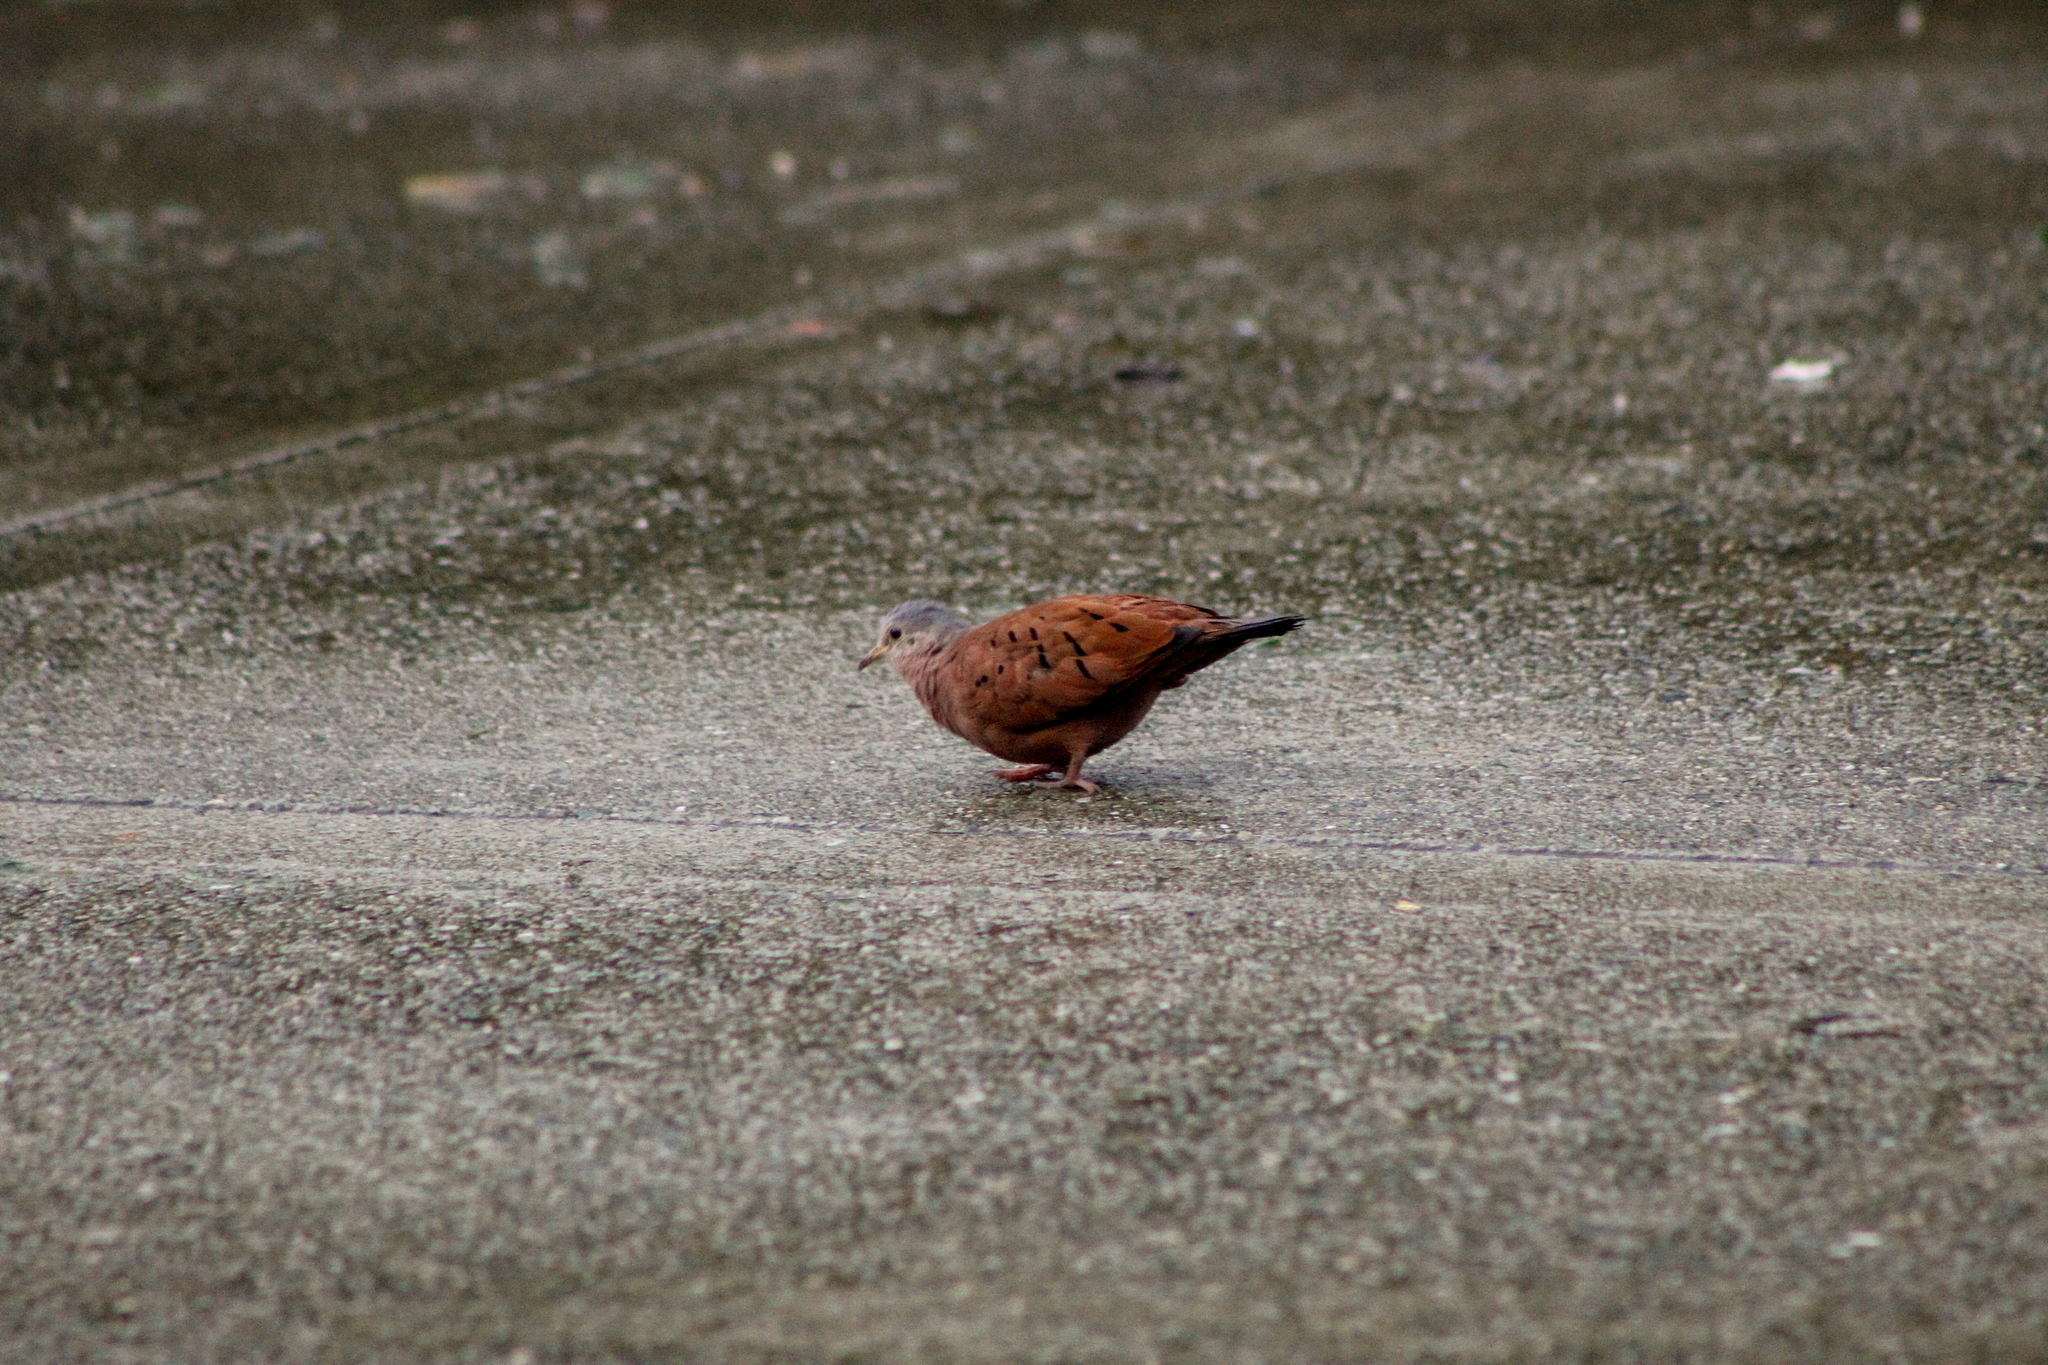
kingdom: Animalia
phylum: Chordata
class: Aves
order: Columbiformes
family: Columbidae
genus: Columbina
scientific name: Columbina talpacoti
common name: Ruddy ground dove
